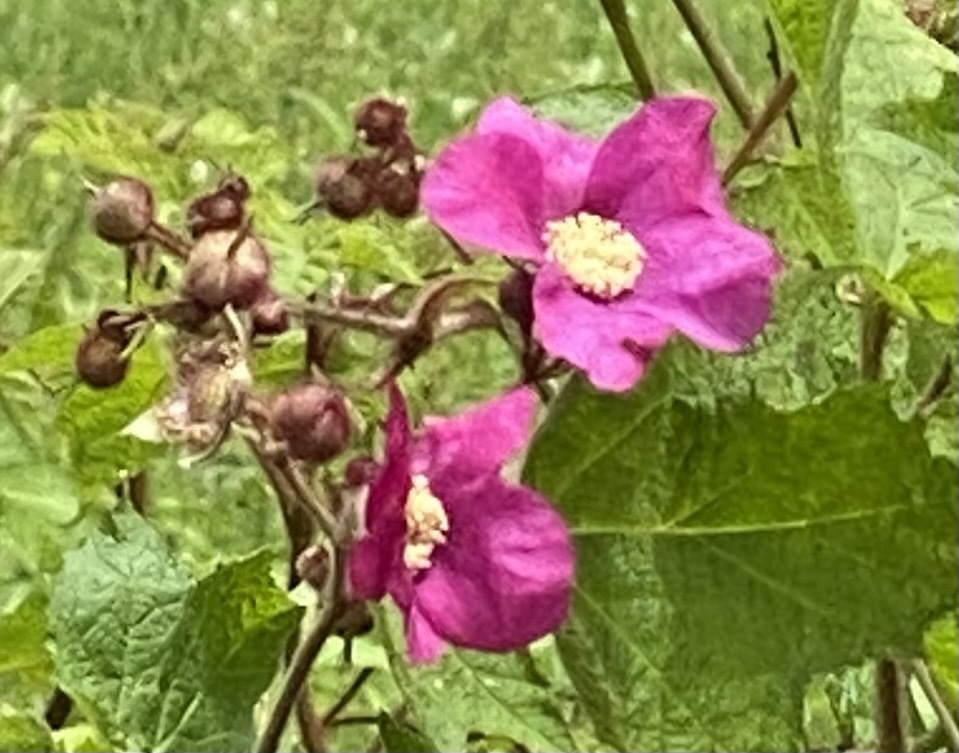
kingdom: Plantae
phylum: Tracheophyta
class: Magnoliopsida
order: Rosales
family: Rosaceae
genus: Rubus
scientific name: Rubus odoratus
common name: Purple-flowered raspberry
